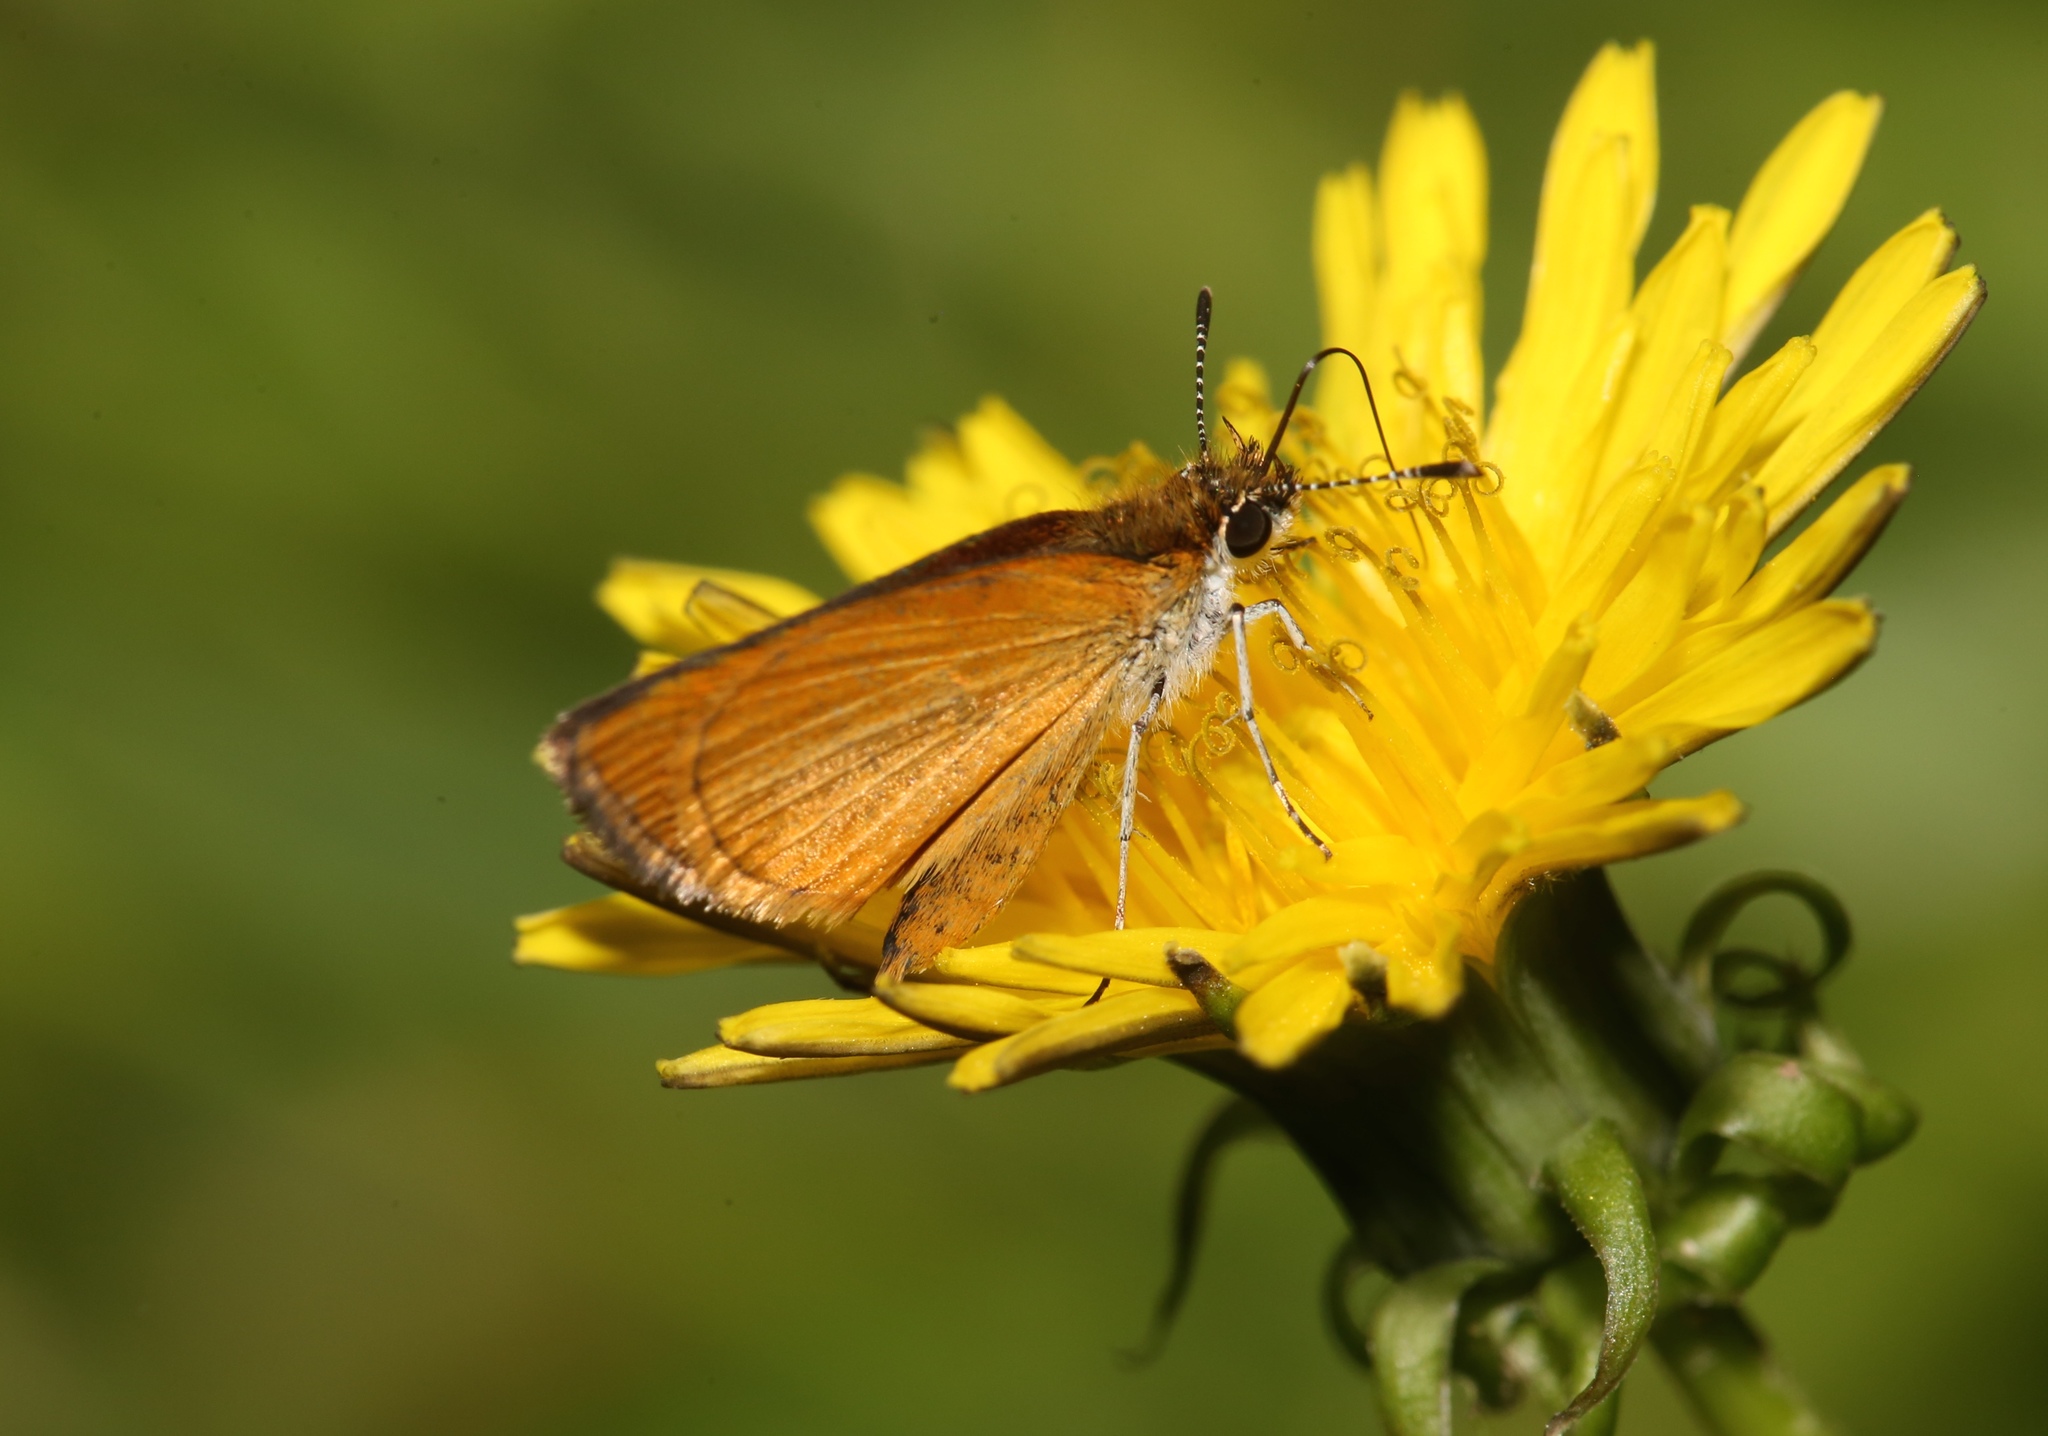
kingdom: Animalia
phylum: Arthropoda
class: Insecta
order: Lepidoptera
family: Hesperiidae
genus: Ancyloxypha
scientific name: Ancyloxypha numitor
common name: Least skipper
